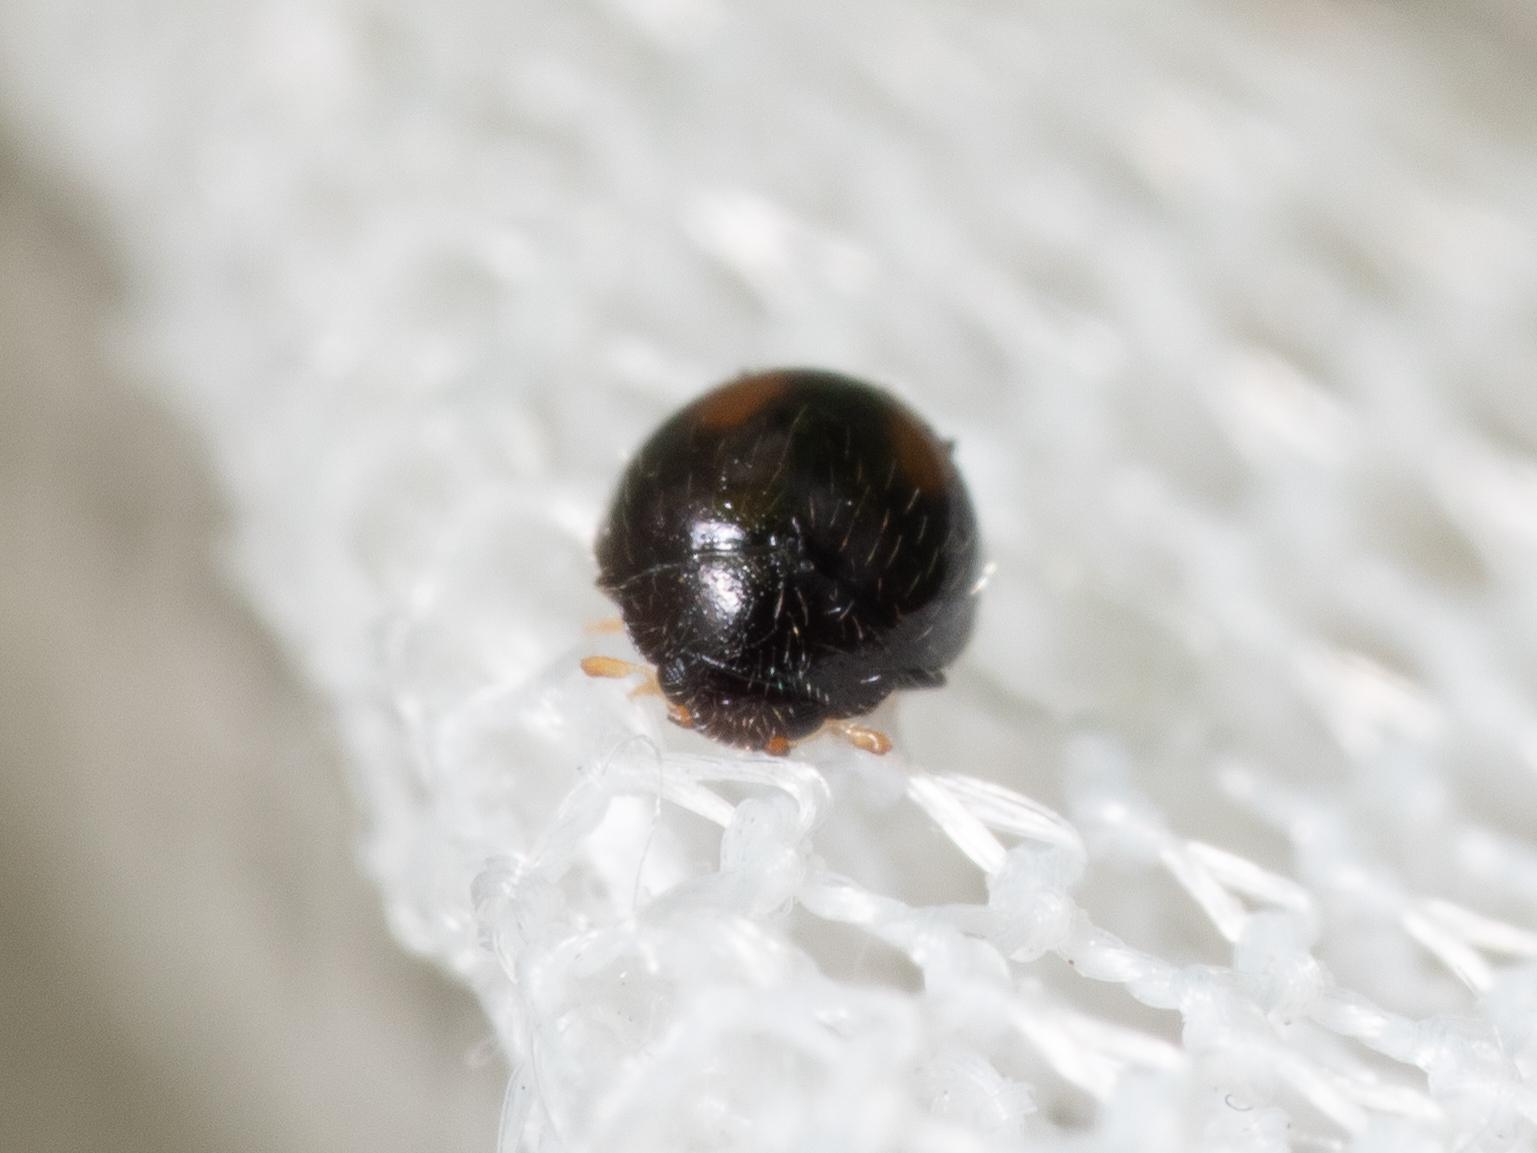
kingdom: Animalia
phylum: Arthropoda
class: Insecta
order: Coleoptera
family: Coccinellidae
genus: Serangium
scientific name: Serangium maculigerum
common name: Lady beetle
